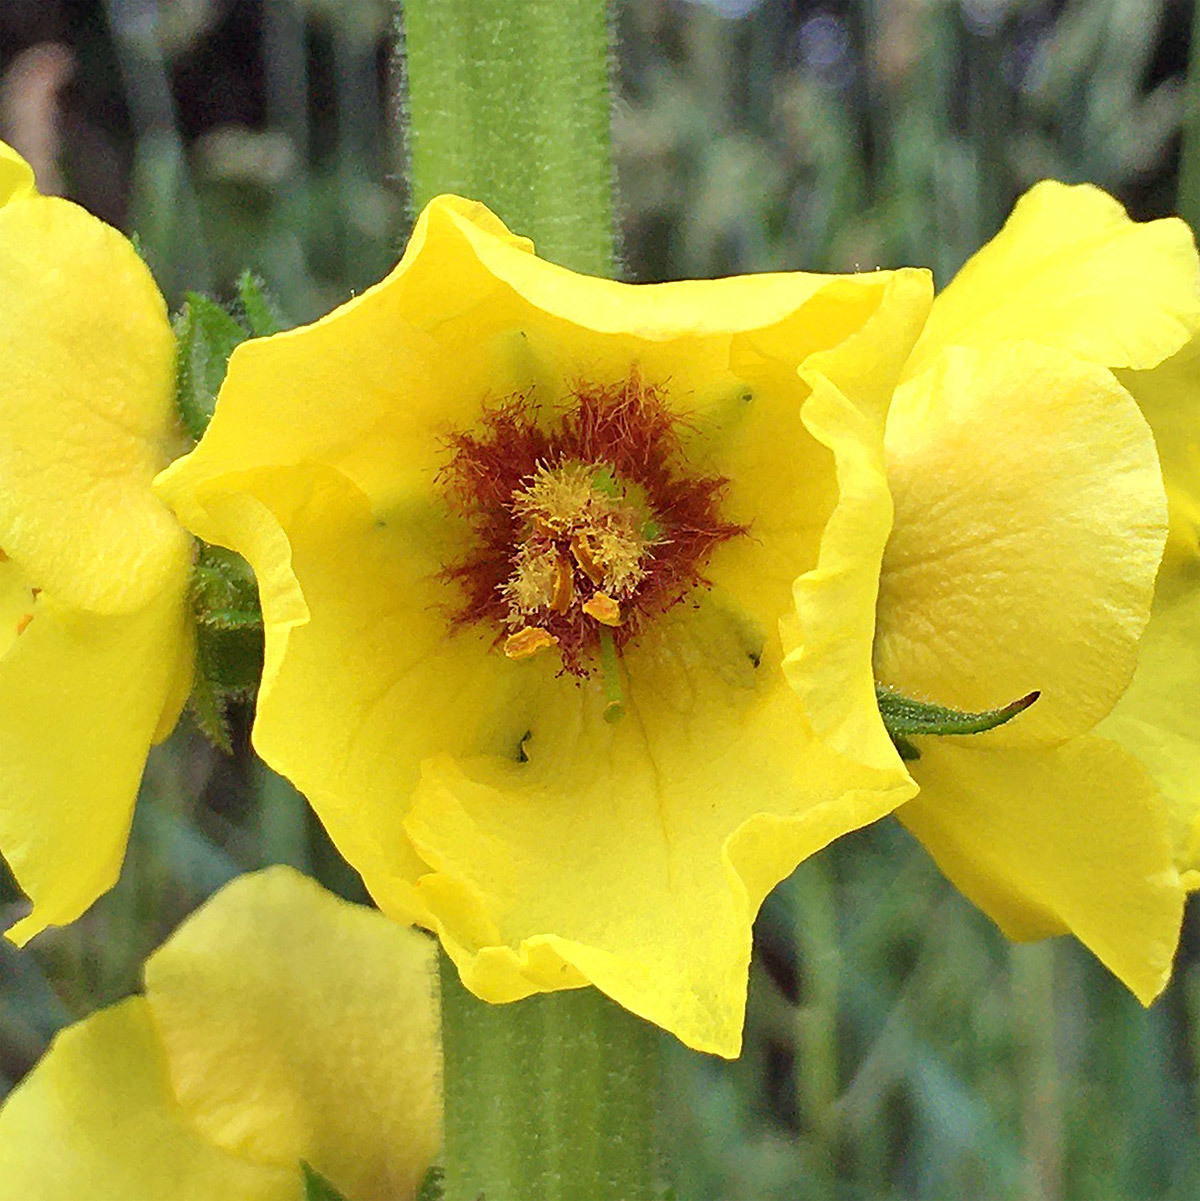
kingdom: Plantae
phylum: Tracheophyta
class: Magnoliopsida
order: Lamiales
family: Scrophulariaceae
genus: Verbascum
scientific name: Verbascum virgatum
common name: Twiggy mullein
